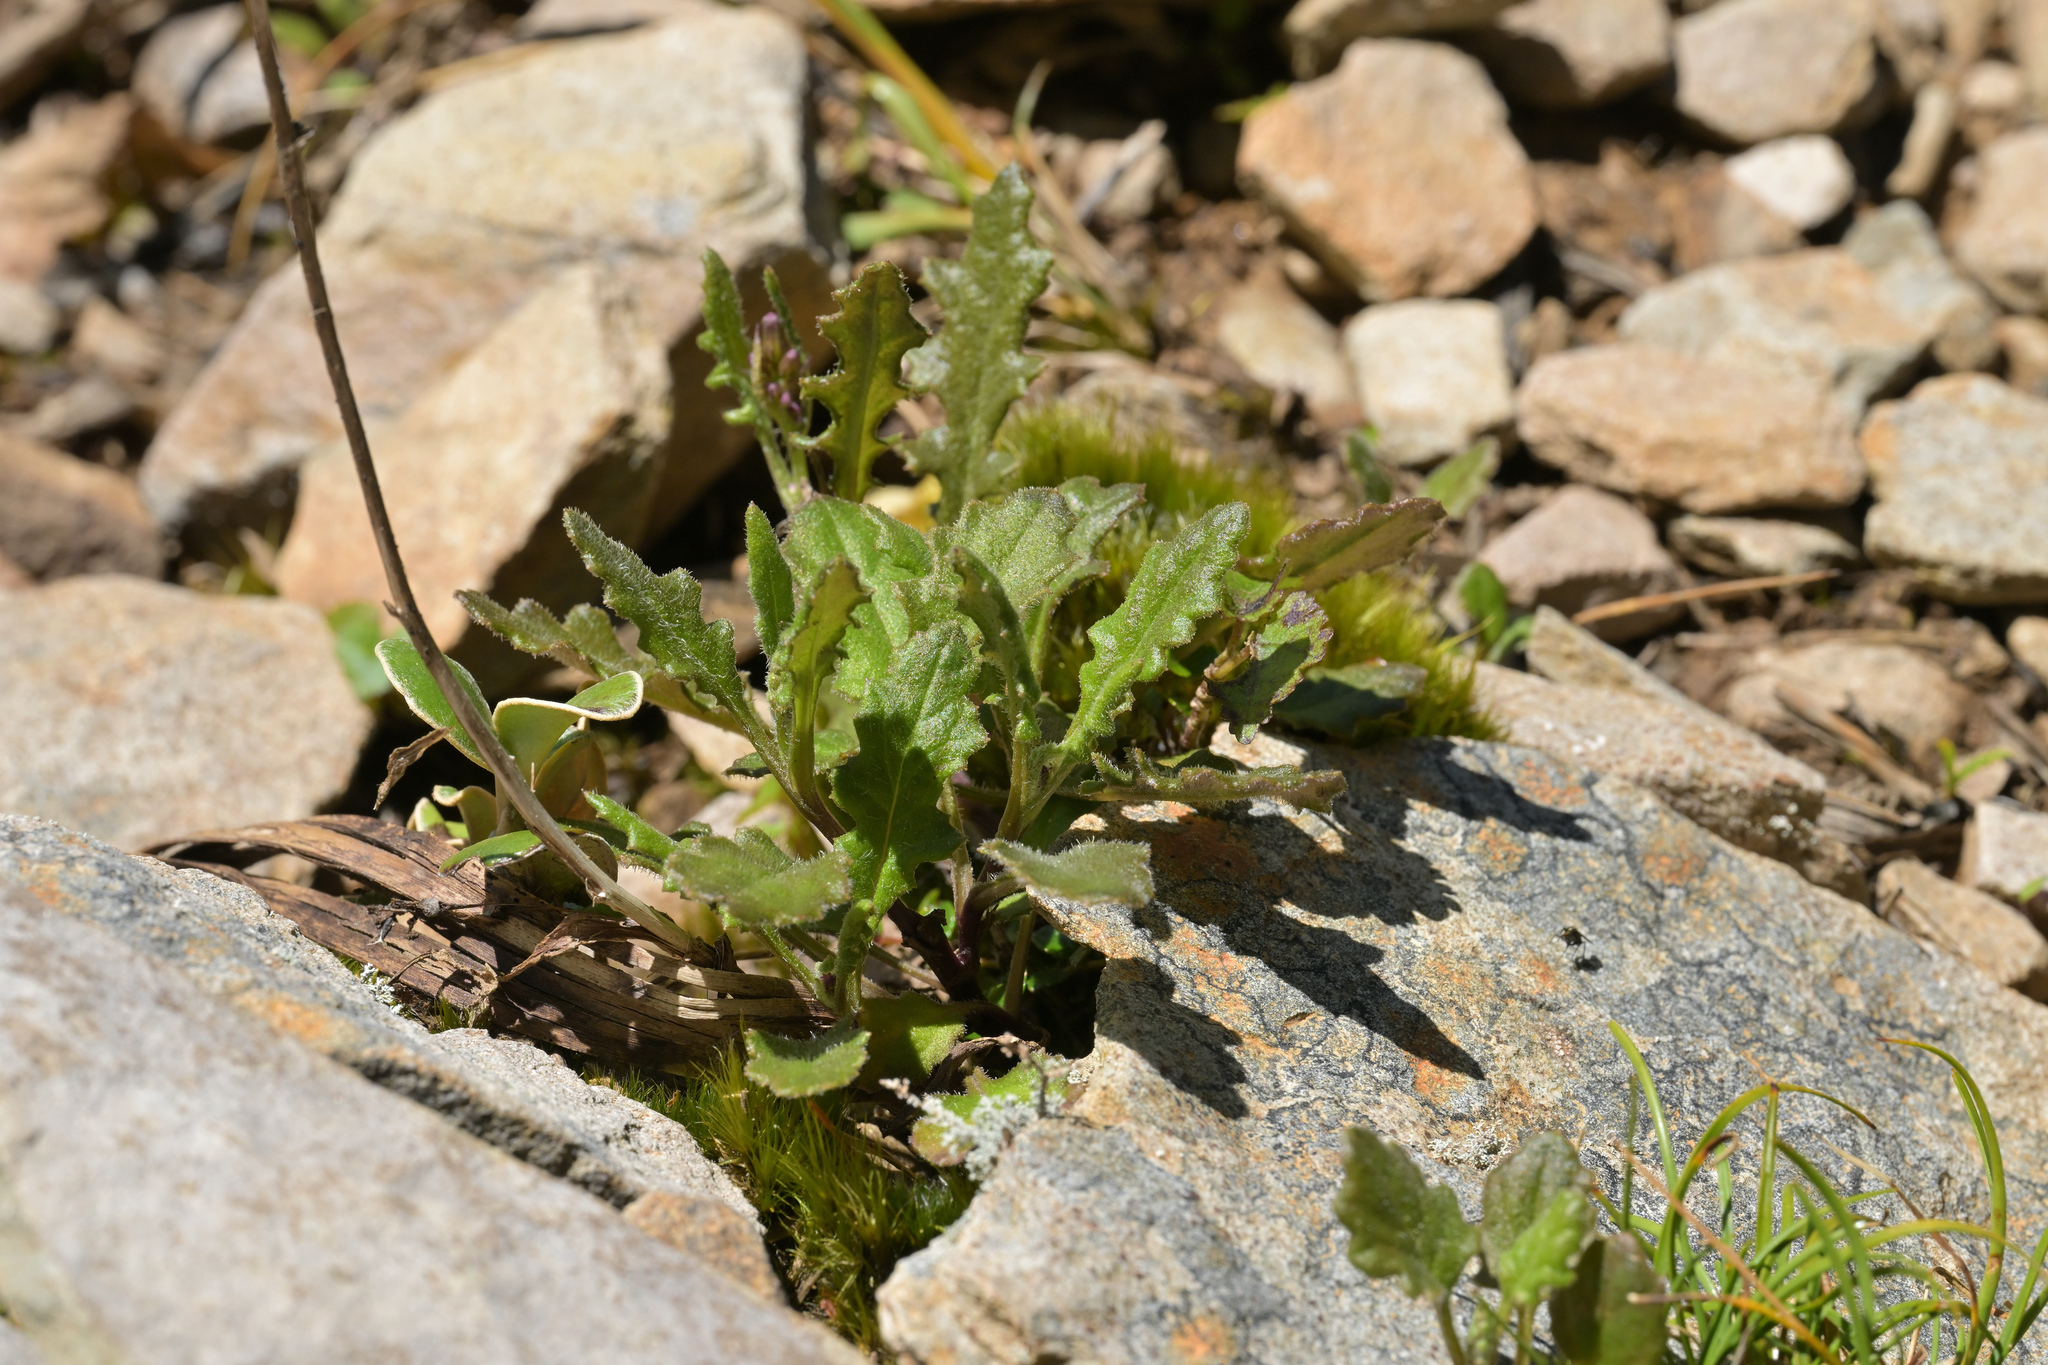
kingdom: Plantae
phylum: Tracheophyta
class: Magnoliopsida
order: Asterales
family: Asteraceae
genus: Senecio
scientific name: Senecio wairauensis
